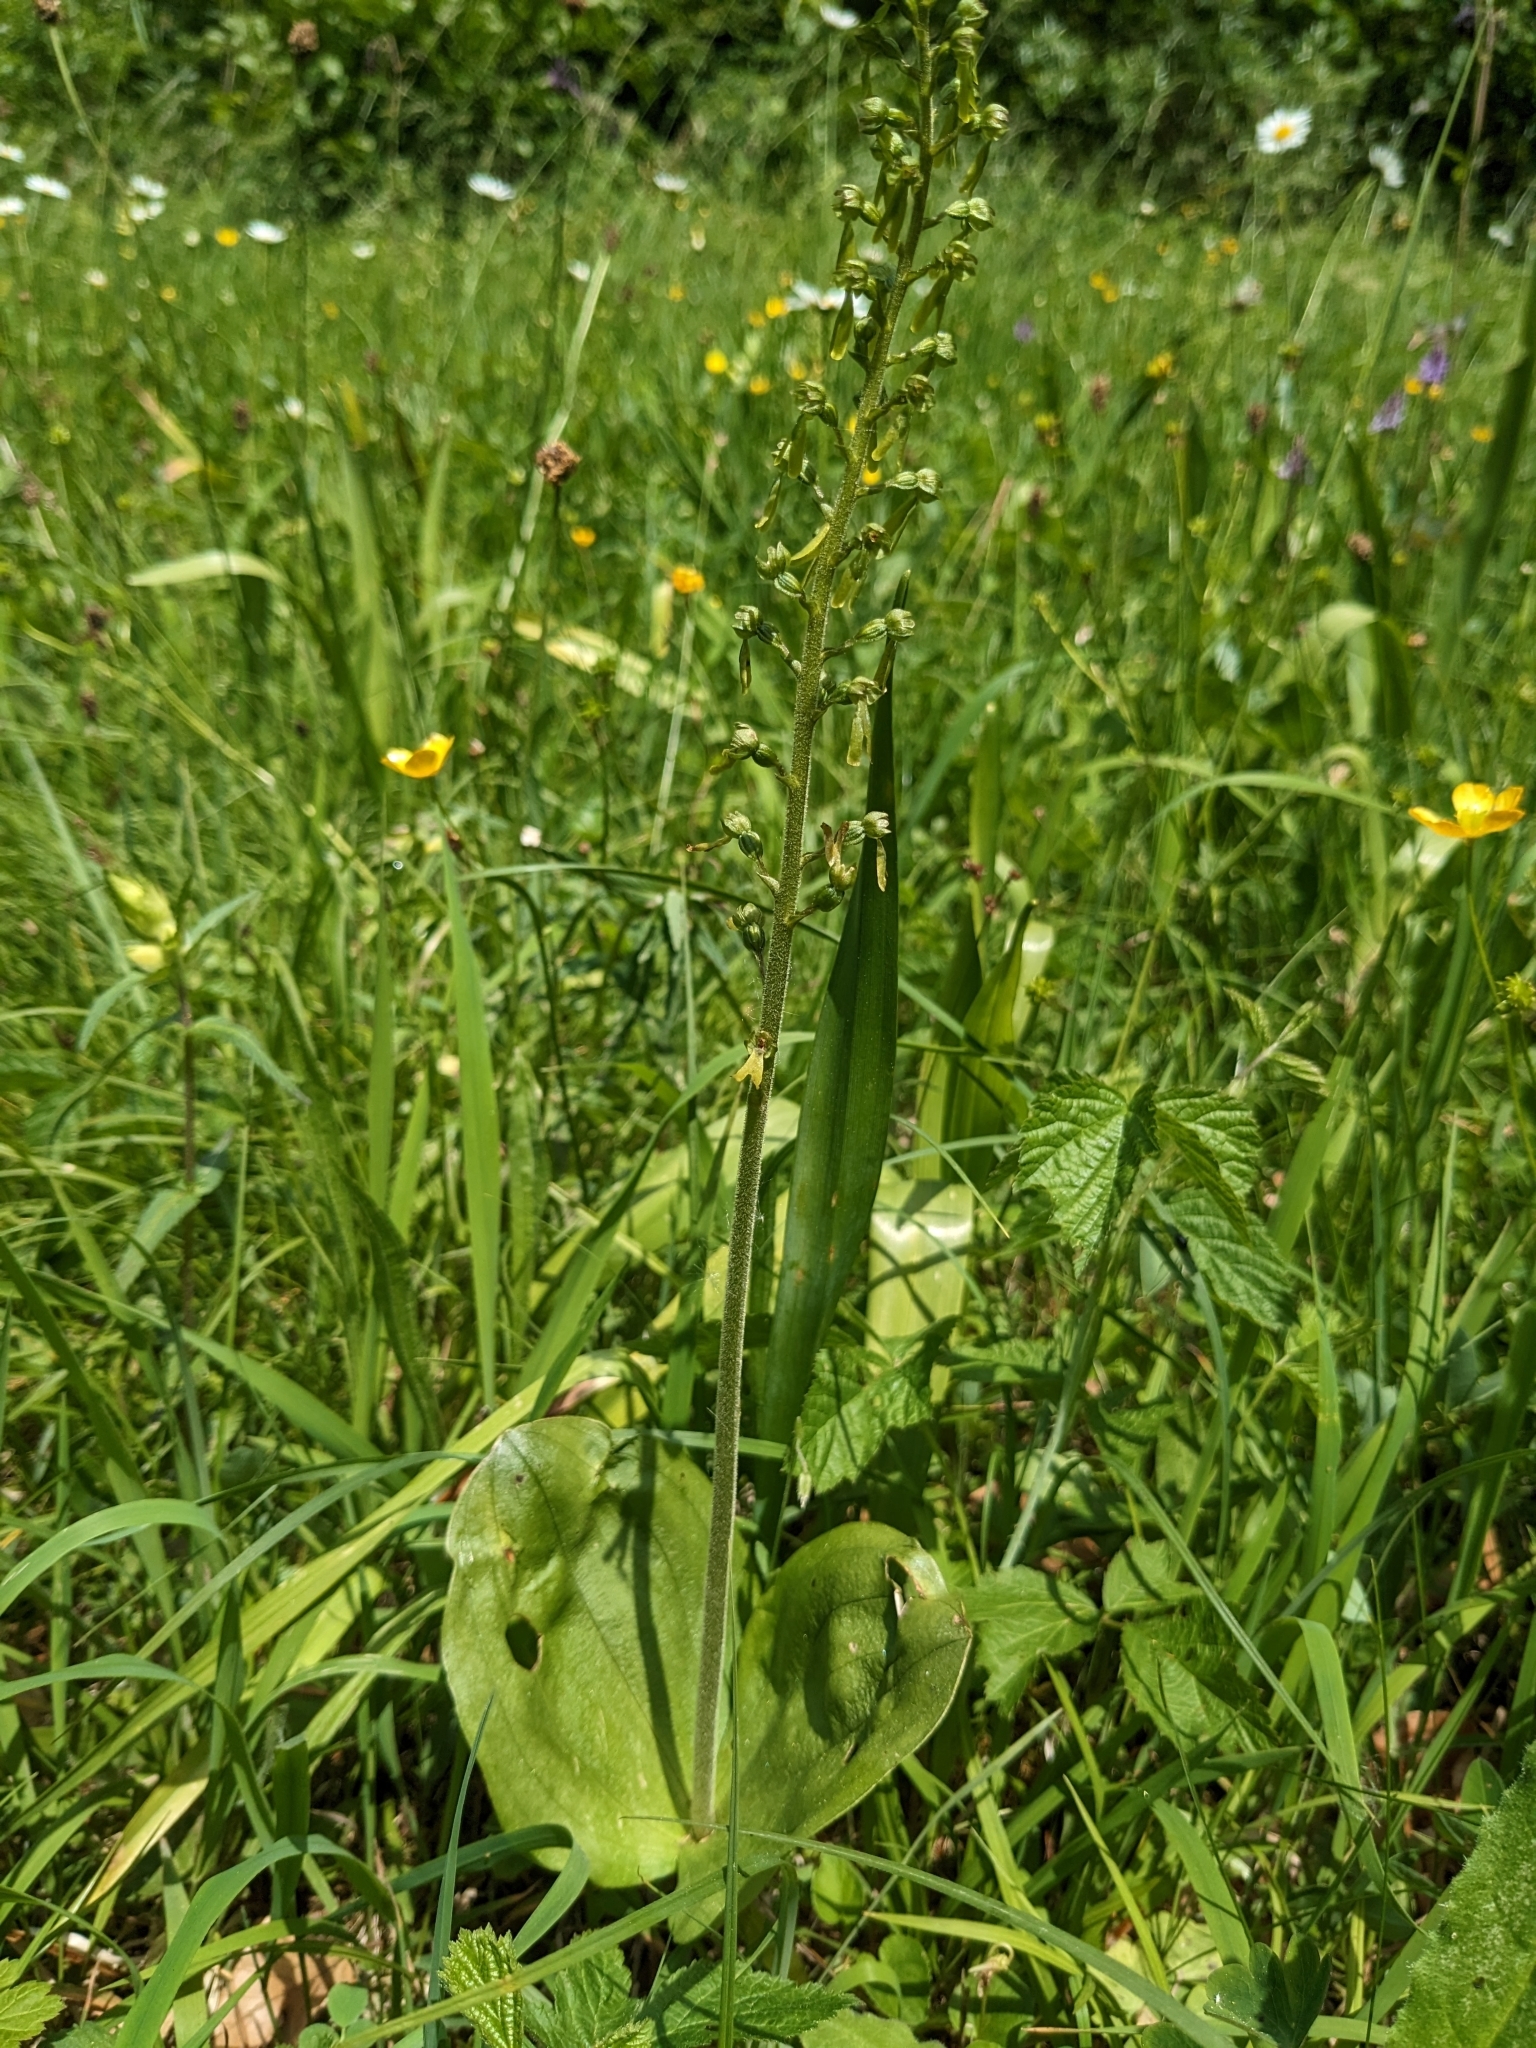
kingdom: Plantae
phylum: Tracheophyta
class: Liliopsida
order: Asparagales
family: Orchidaceae
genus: Neottia
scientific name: Neottia ovata
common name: Common twayblade
